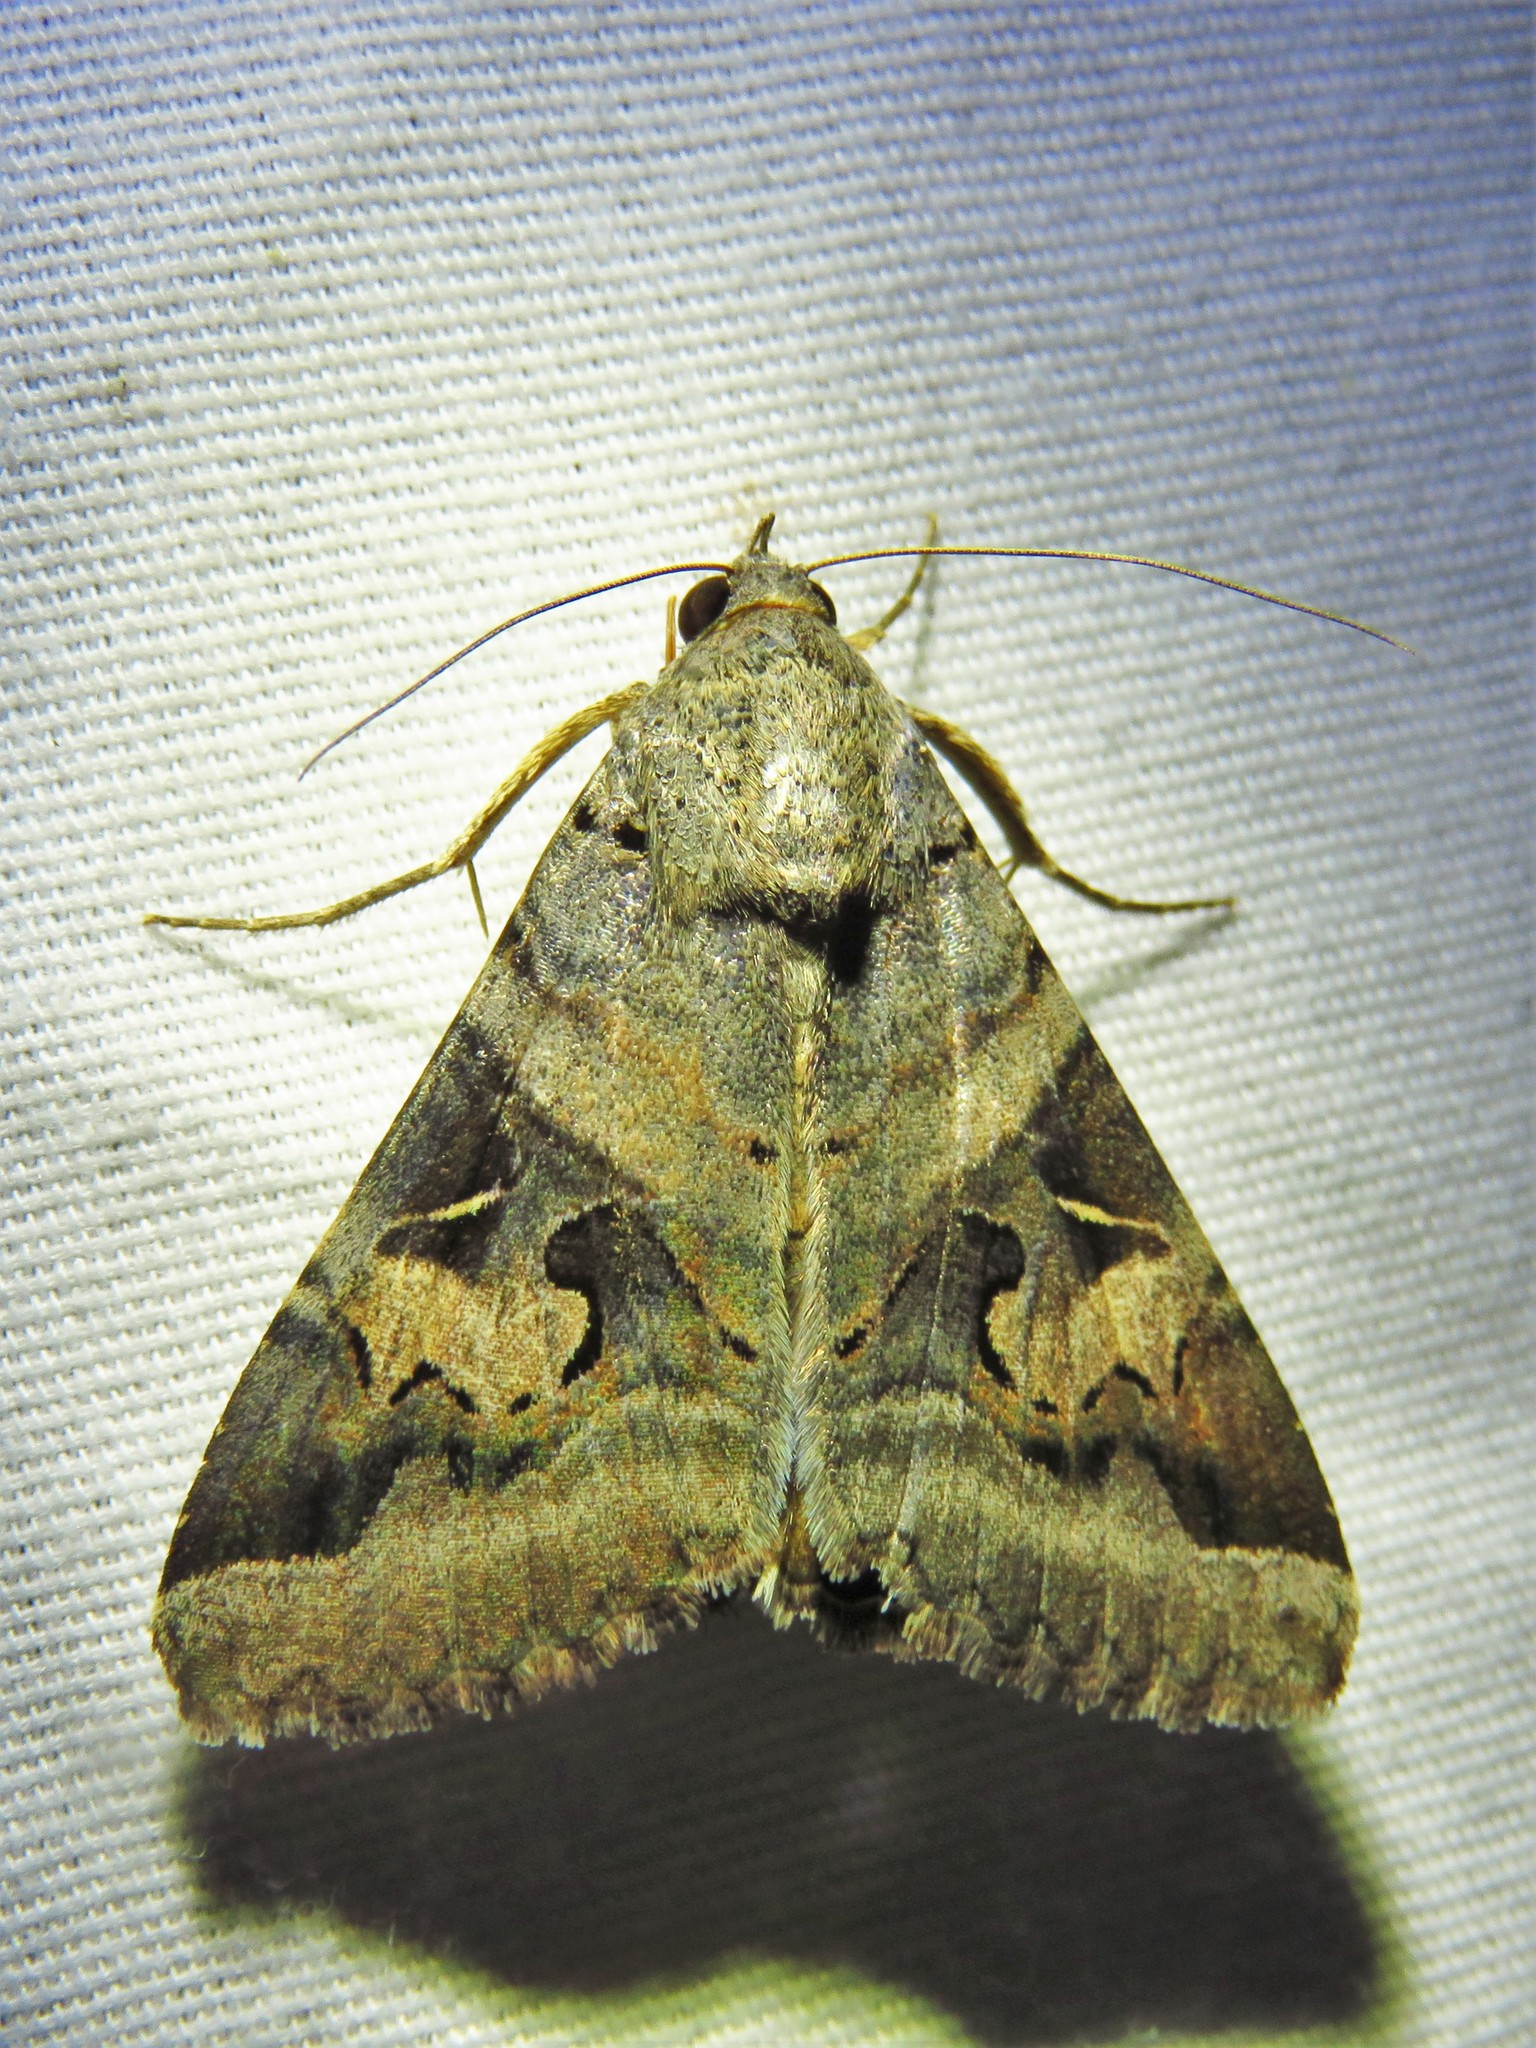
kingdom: Animalia
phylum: Arthropoda
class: Insecta
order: Lepidoptera
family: Erebidae
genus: Melipotis
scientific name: Melipotis indomita
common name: Moth
